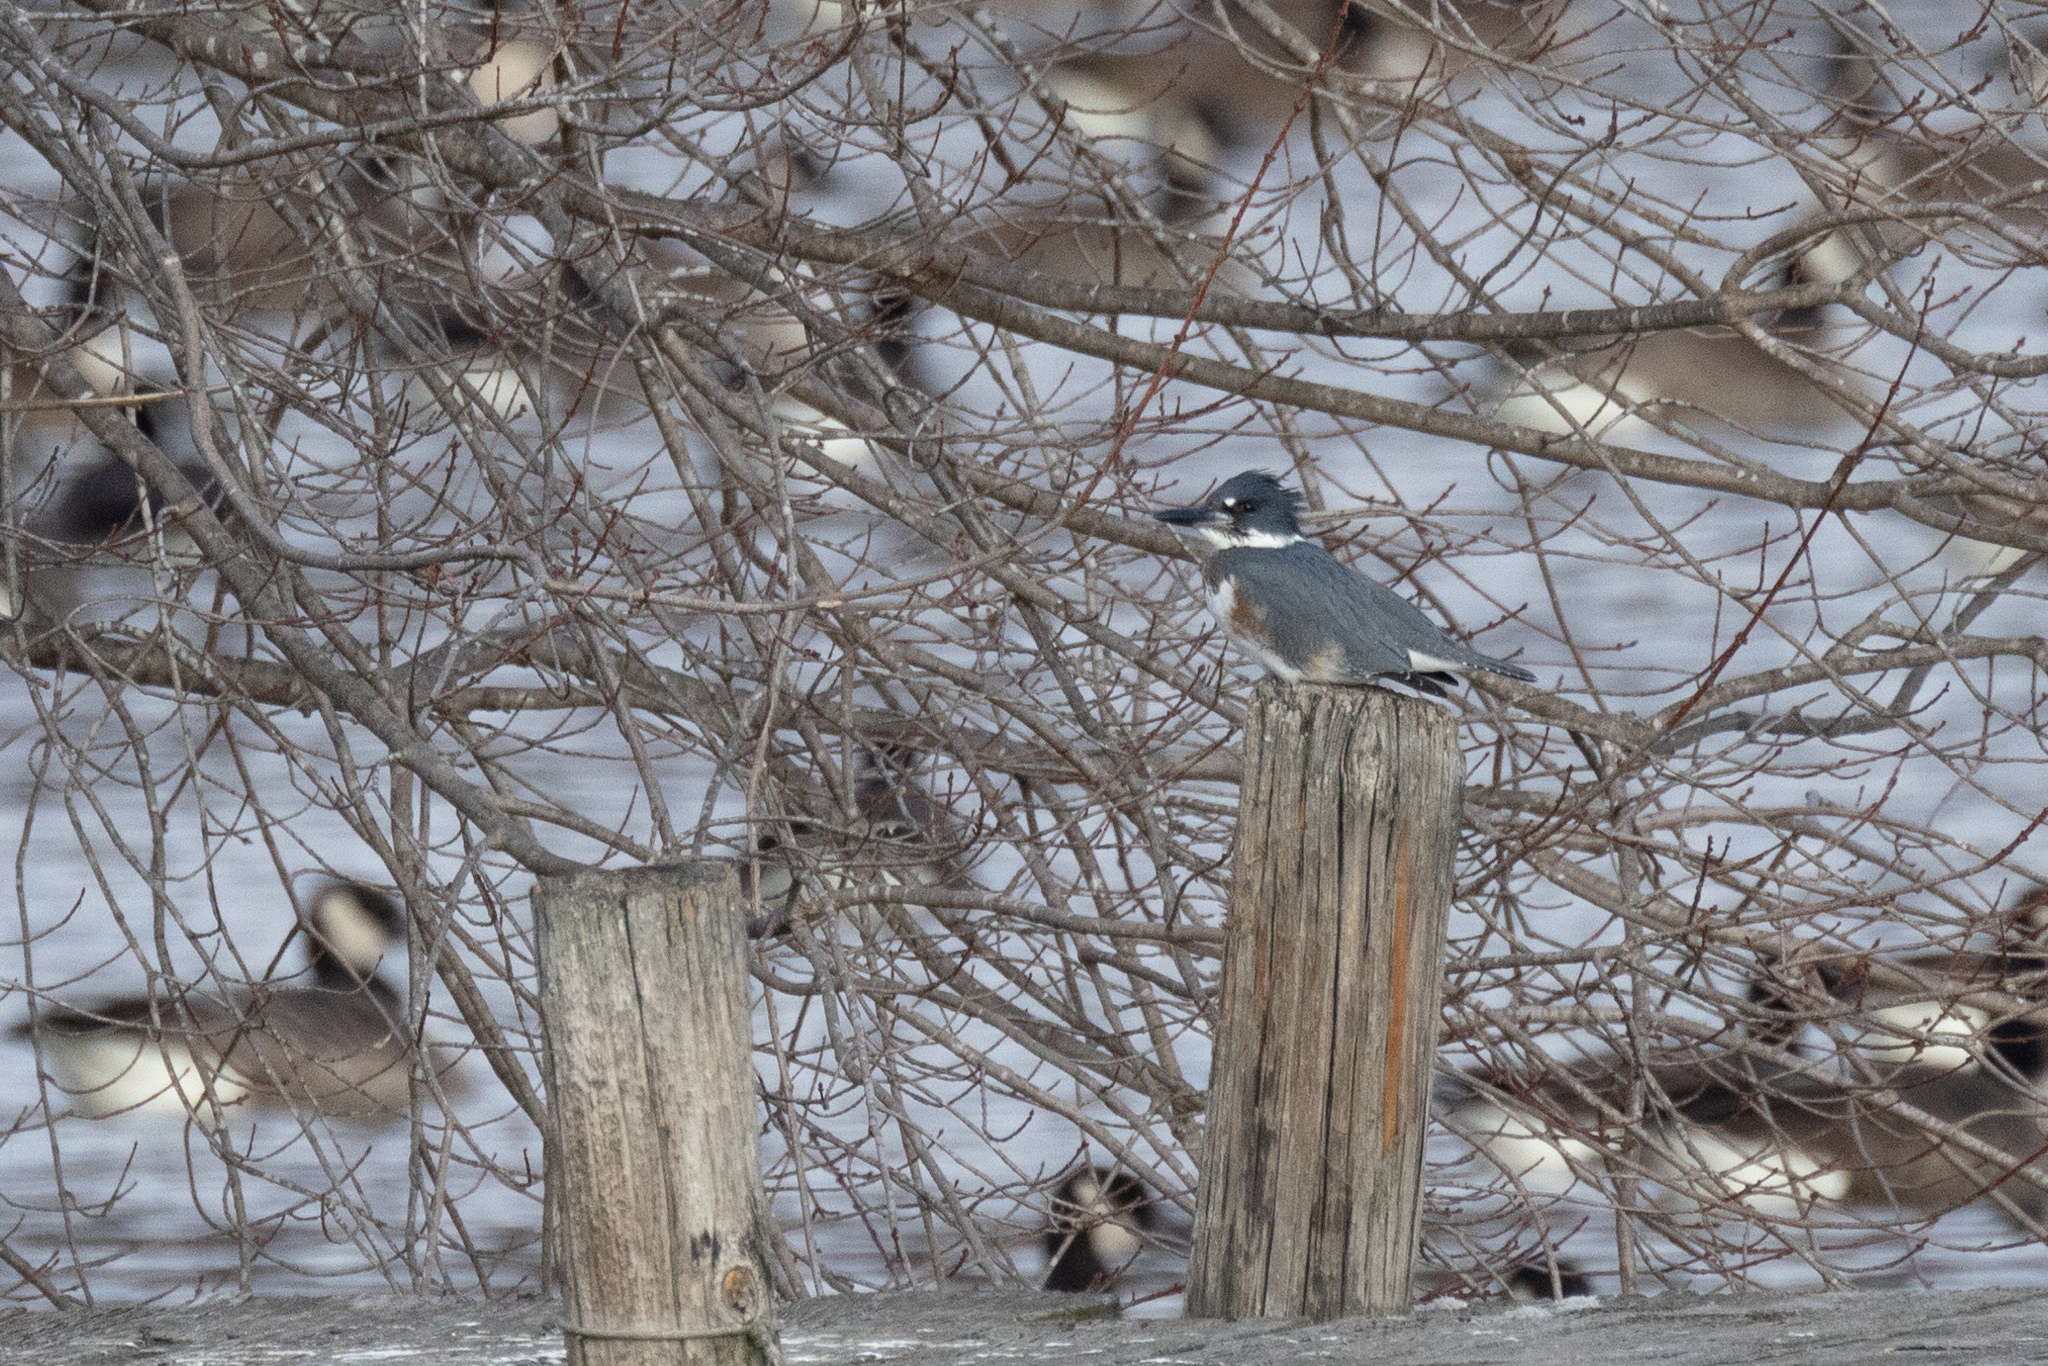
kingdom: Animalia
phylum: Chordata
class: Aves
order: Coraciiformes
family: Alcedinidae
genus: Megaceryle
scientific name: Megaceryle alcyon
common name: Belted kingfisher
